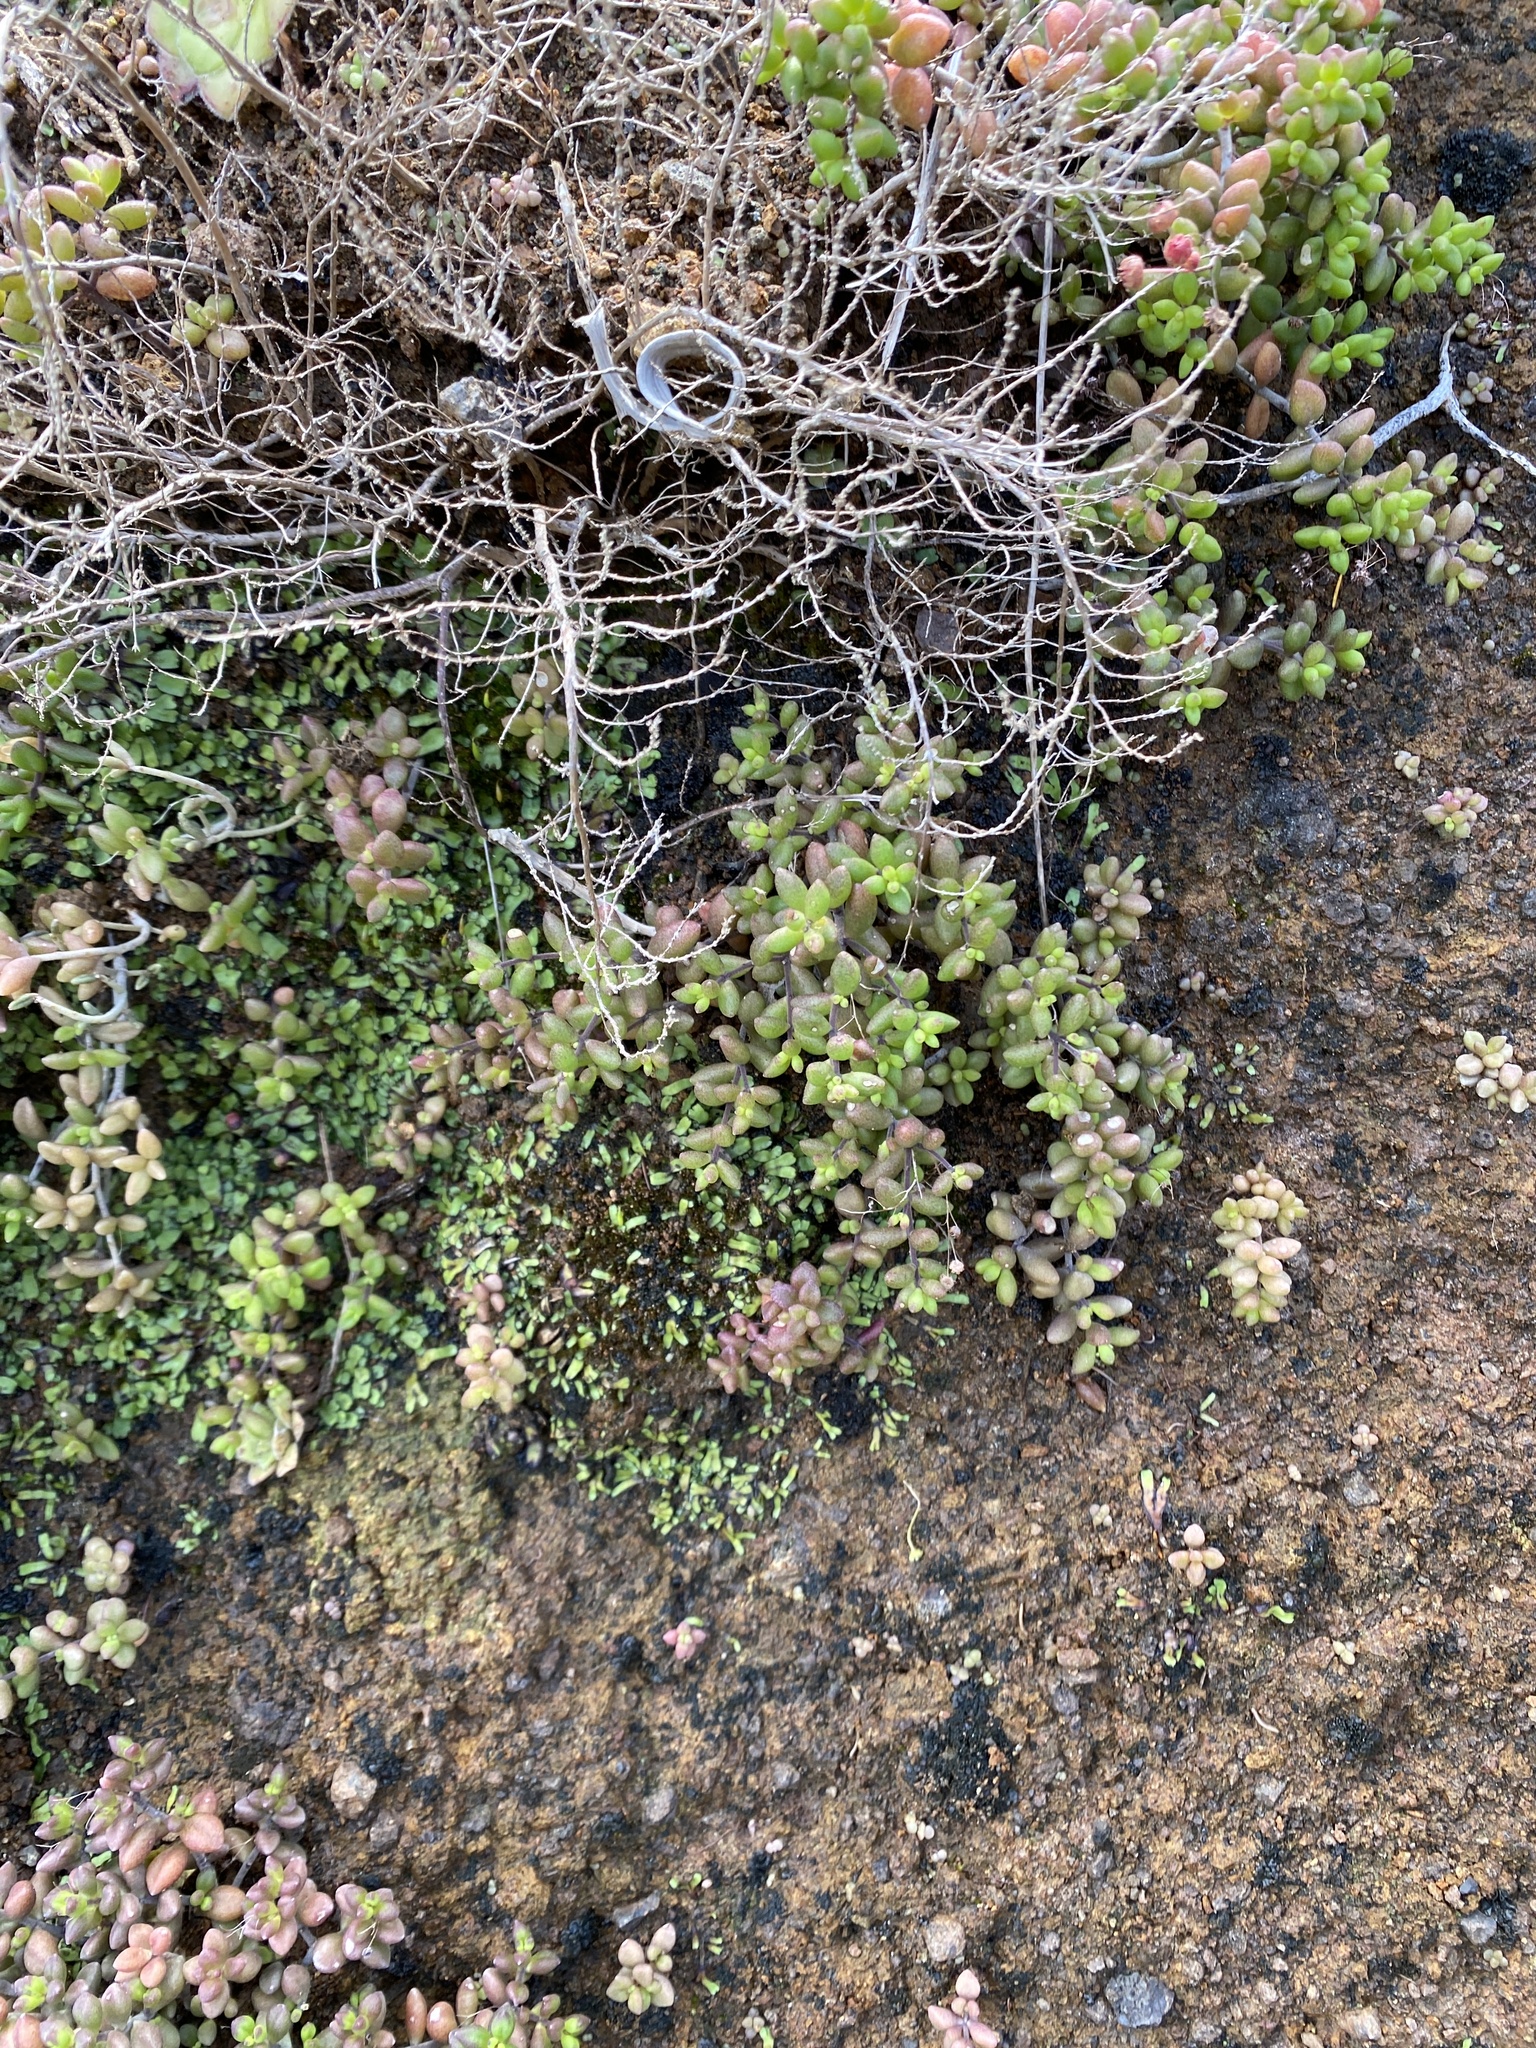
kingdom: Plantae
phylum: Tracheophyta
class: Magnoliopsida
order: Saxifragales
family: Crassulaceae
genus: Monanthes
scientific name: Monanthes laxiflora
